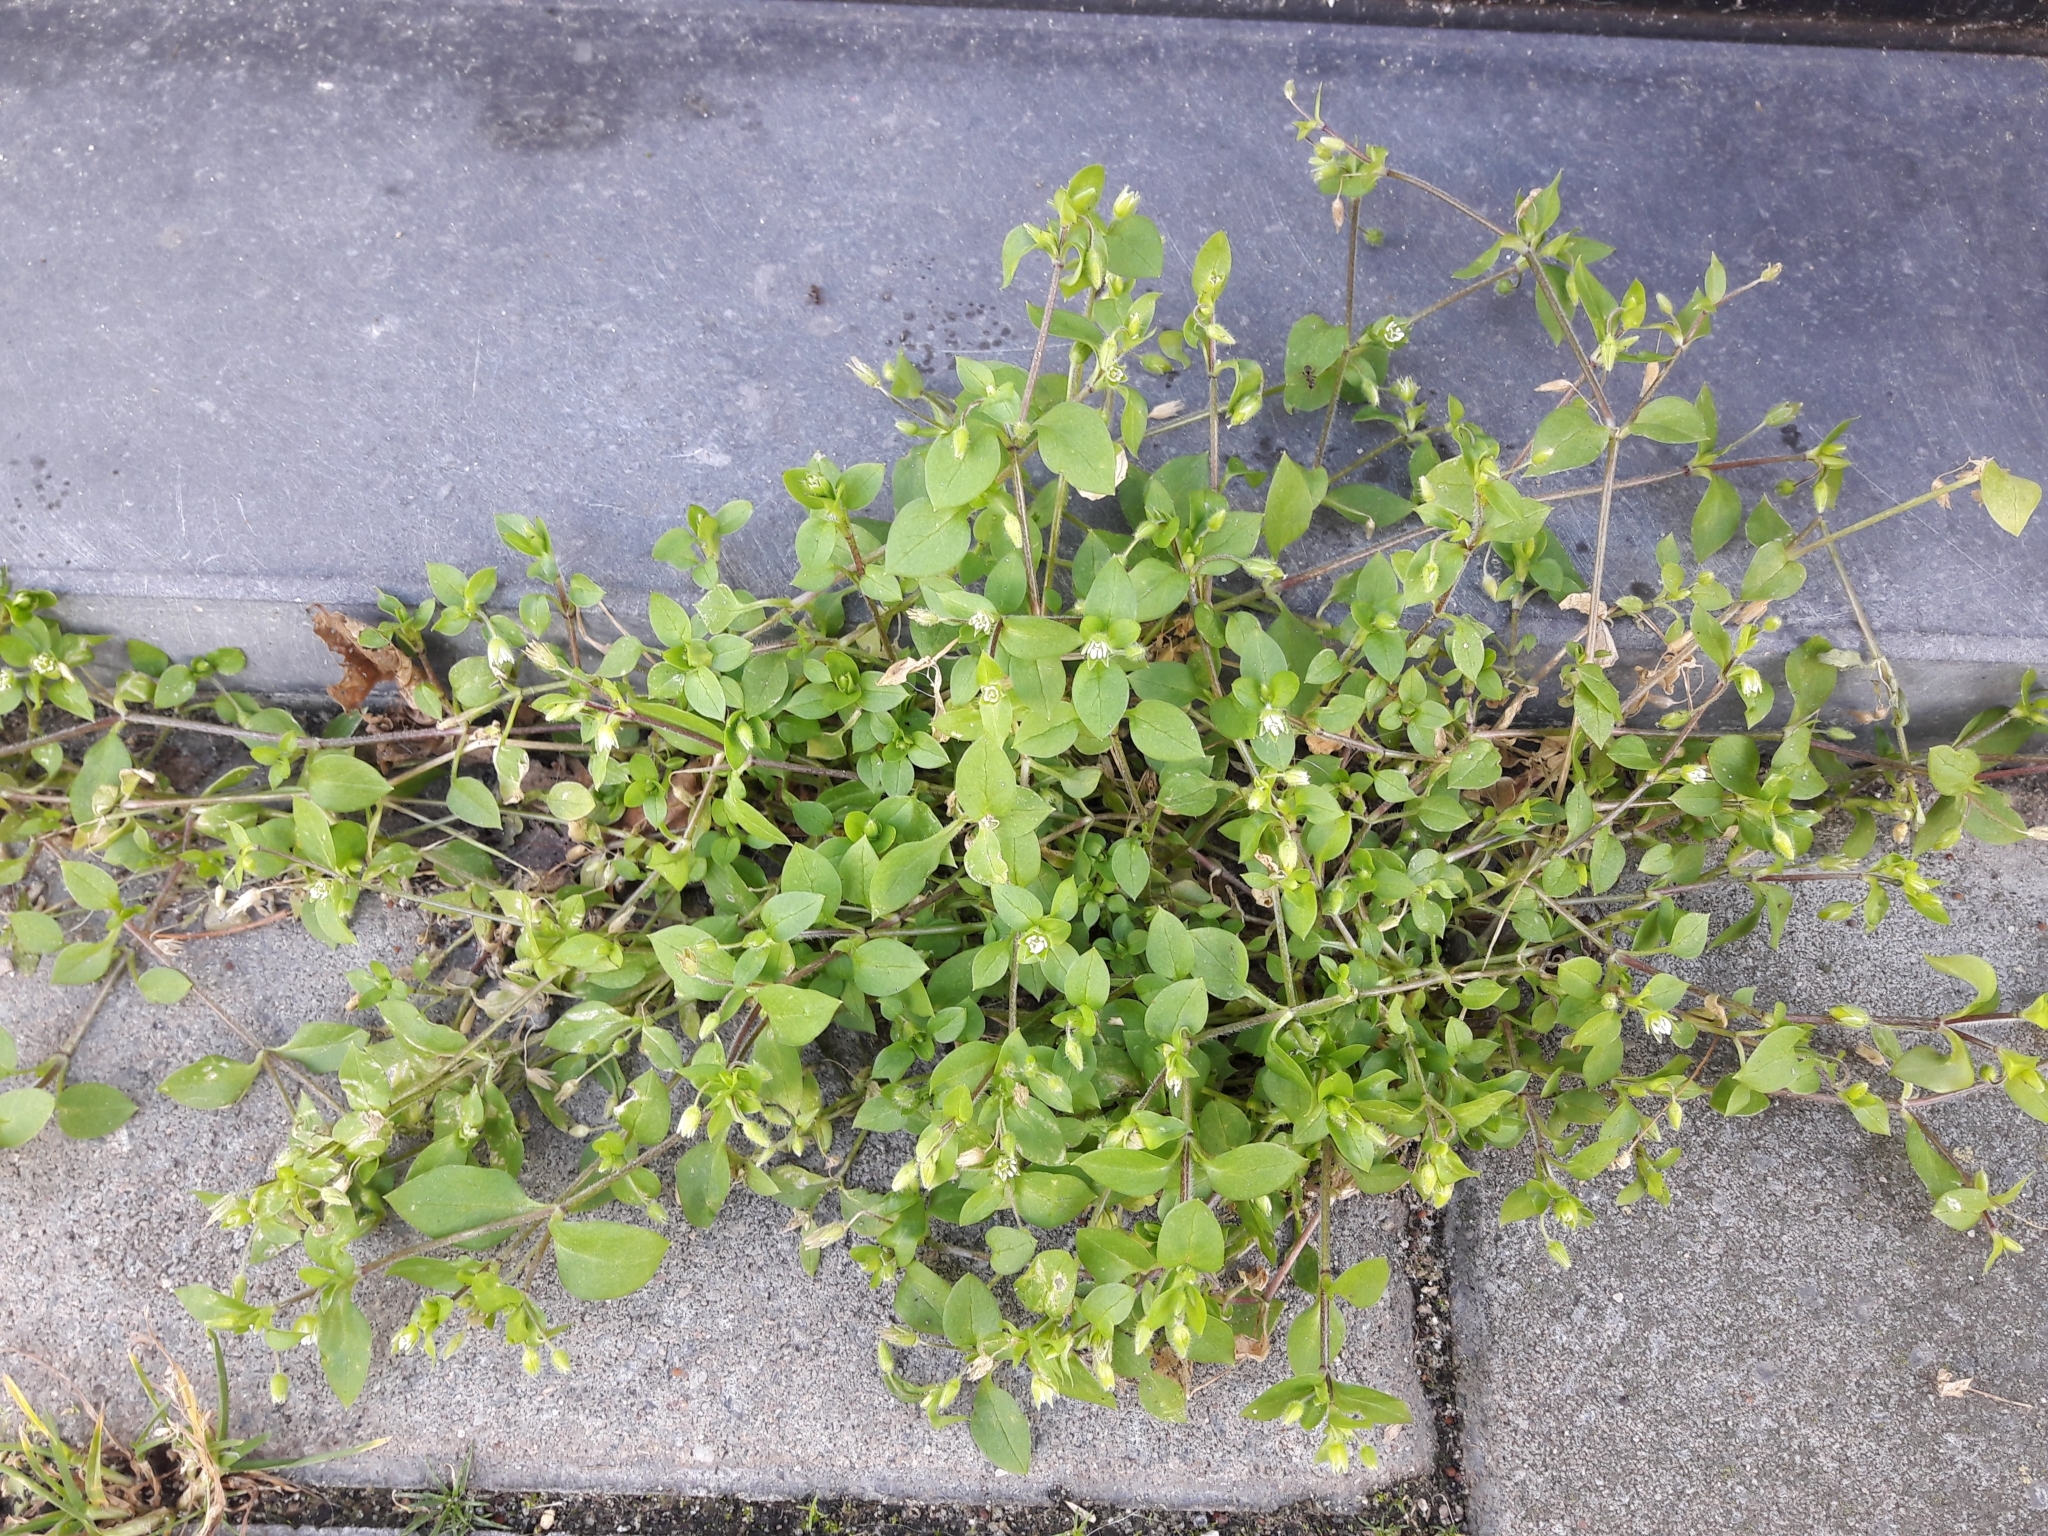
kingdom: Plantae
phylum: Tracheophyta
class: Magnoliopsida
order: Caryophyllales
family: Caryophyllaceae
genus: Stellaria
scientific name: Stellaria media
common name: Common chickweed
